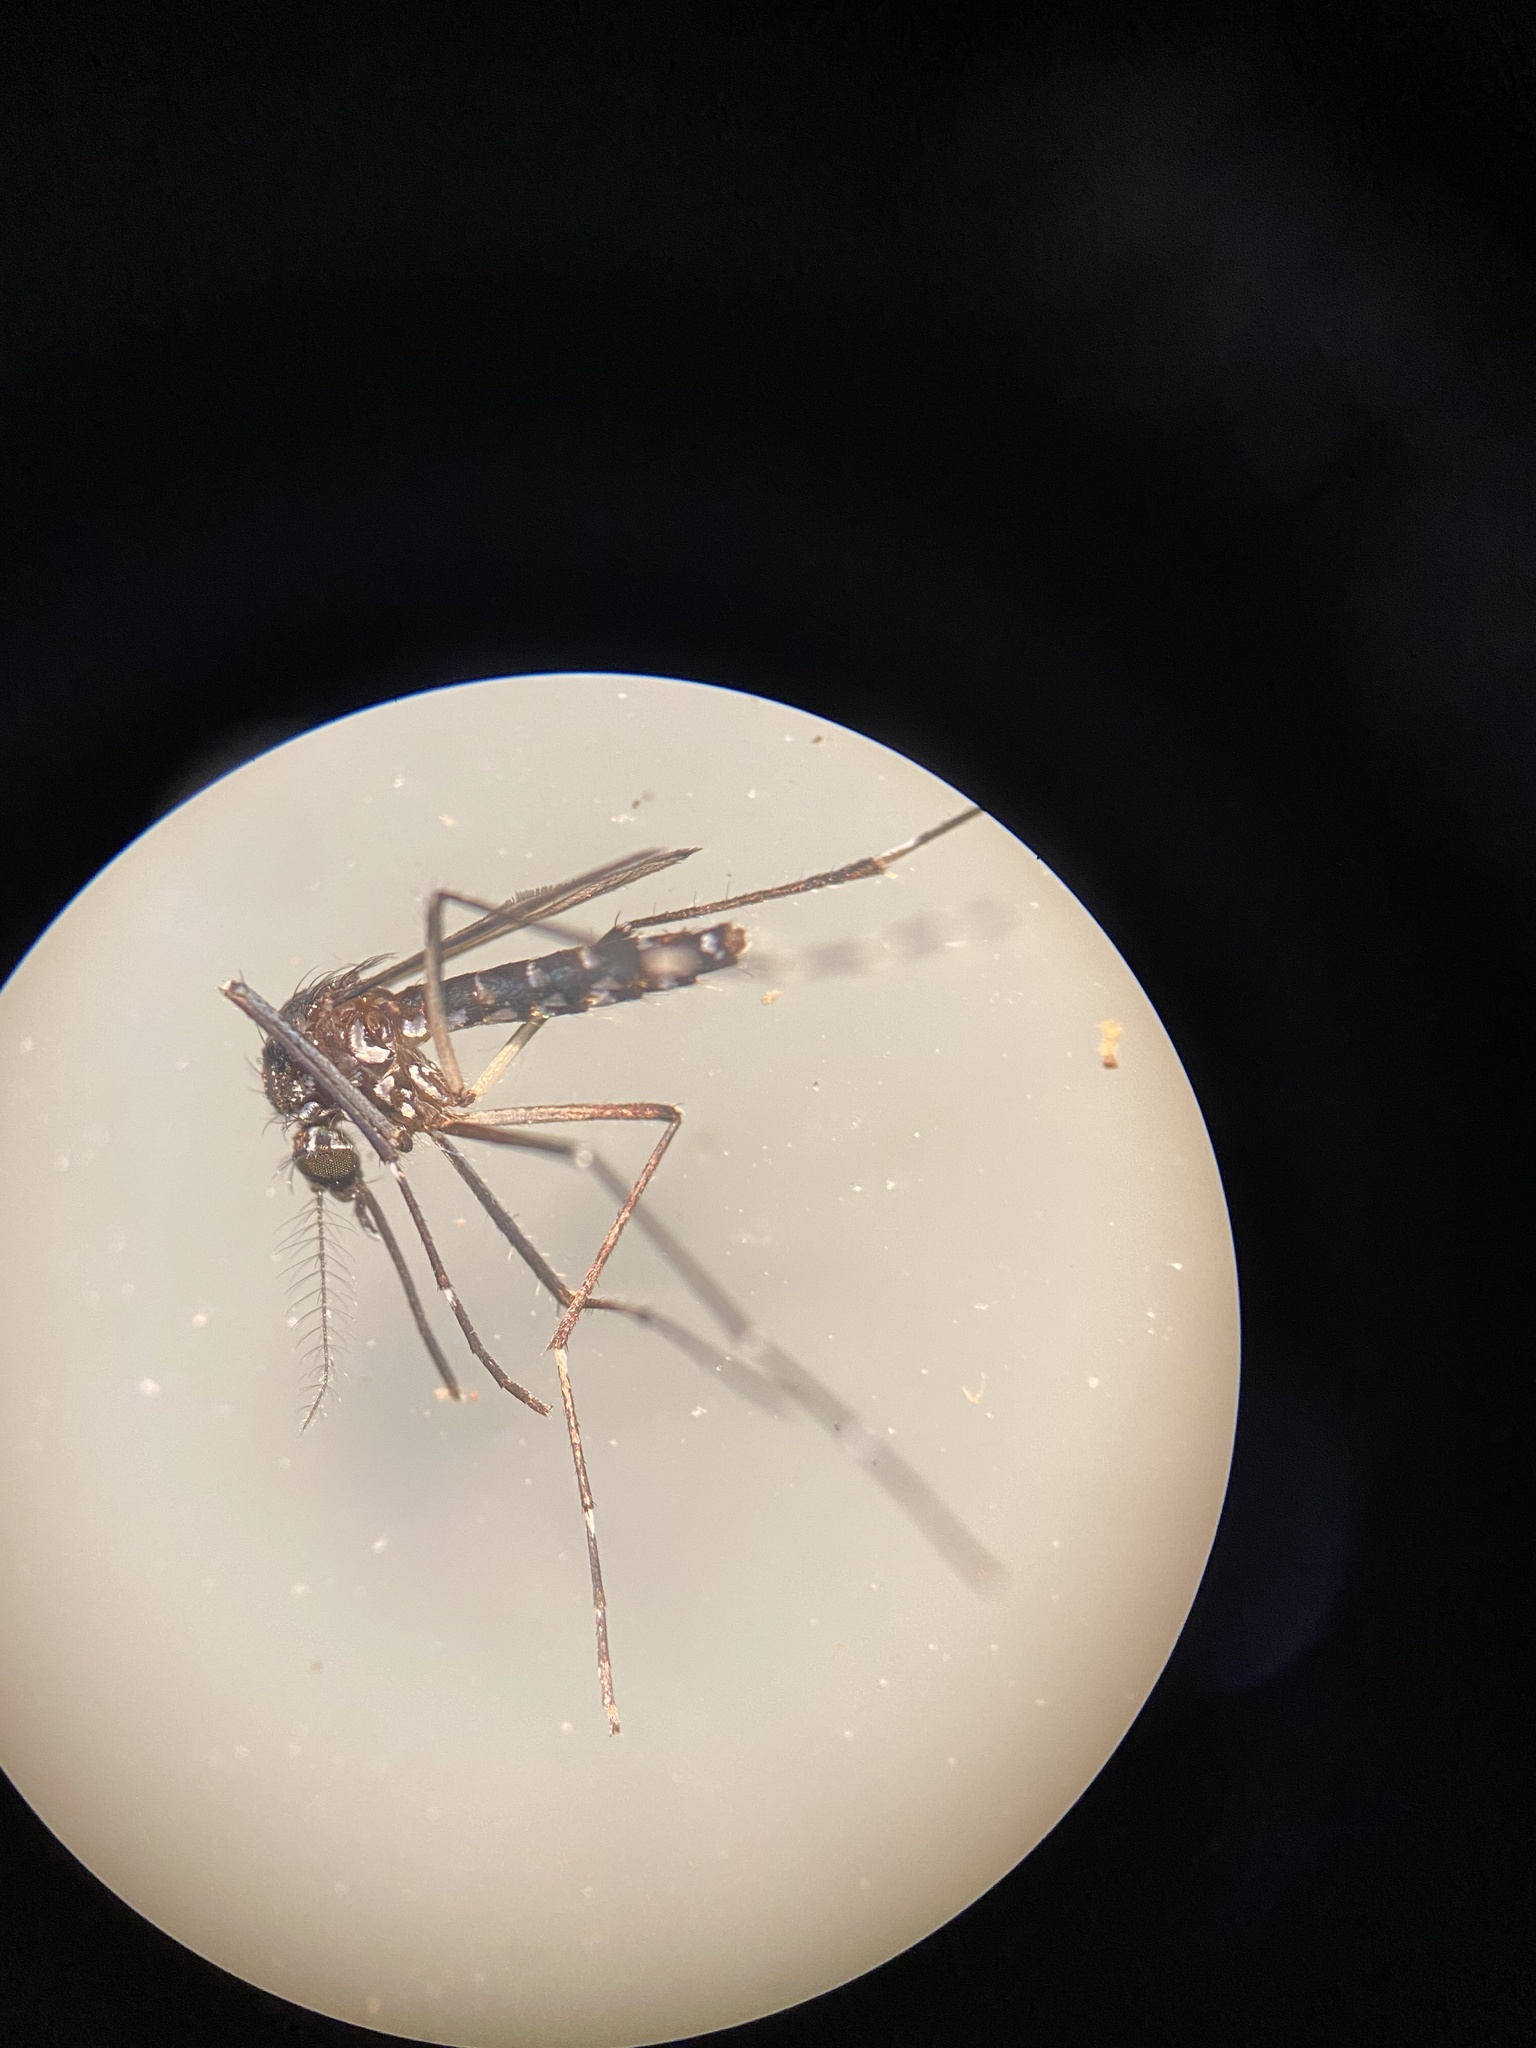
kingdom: Animalia
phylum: Arthropoda
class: Insecta
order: Diptera
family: Culicidae
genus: Aedes
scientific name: Aedes albopictus
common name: Tiger mosquito
